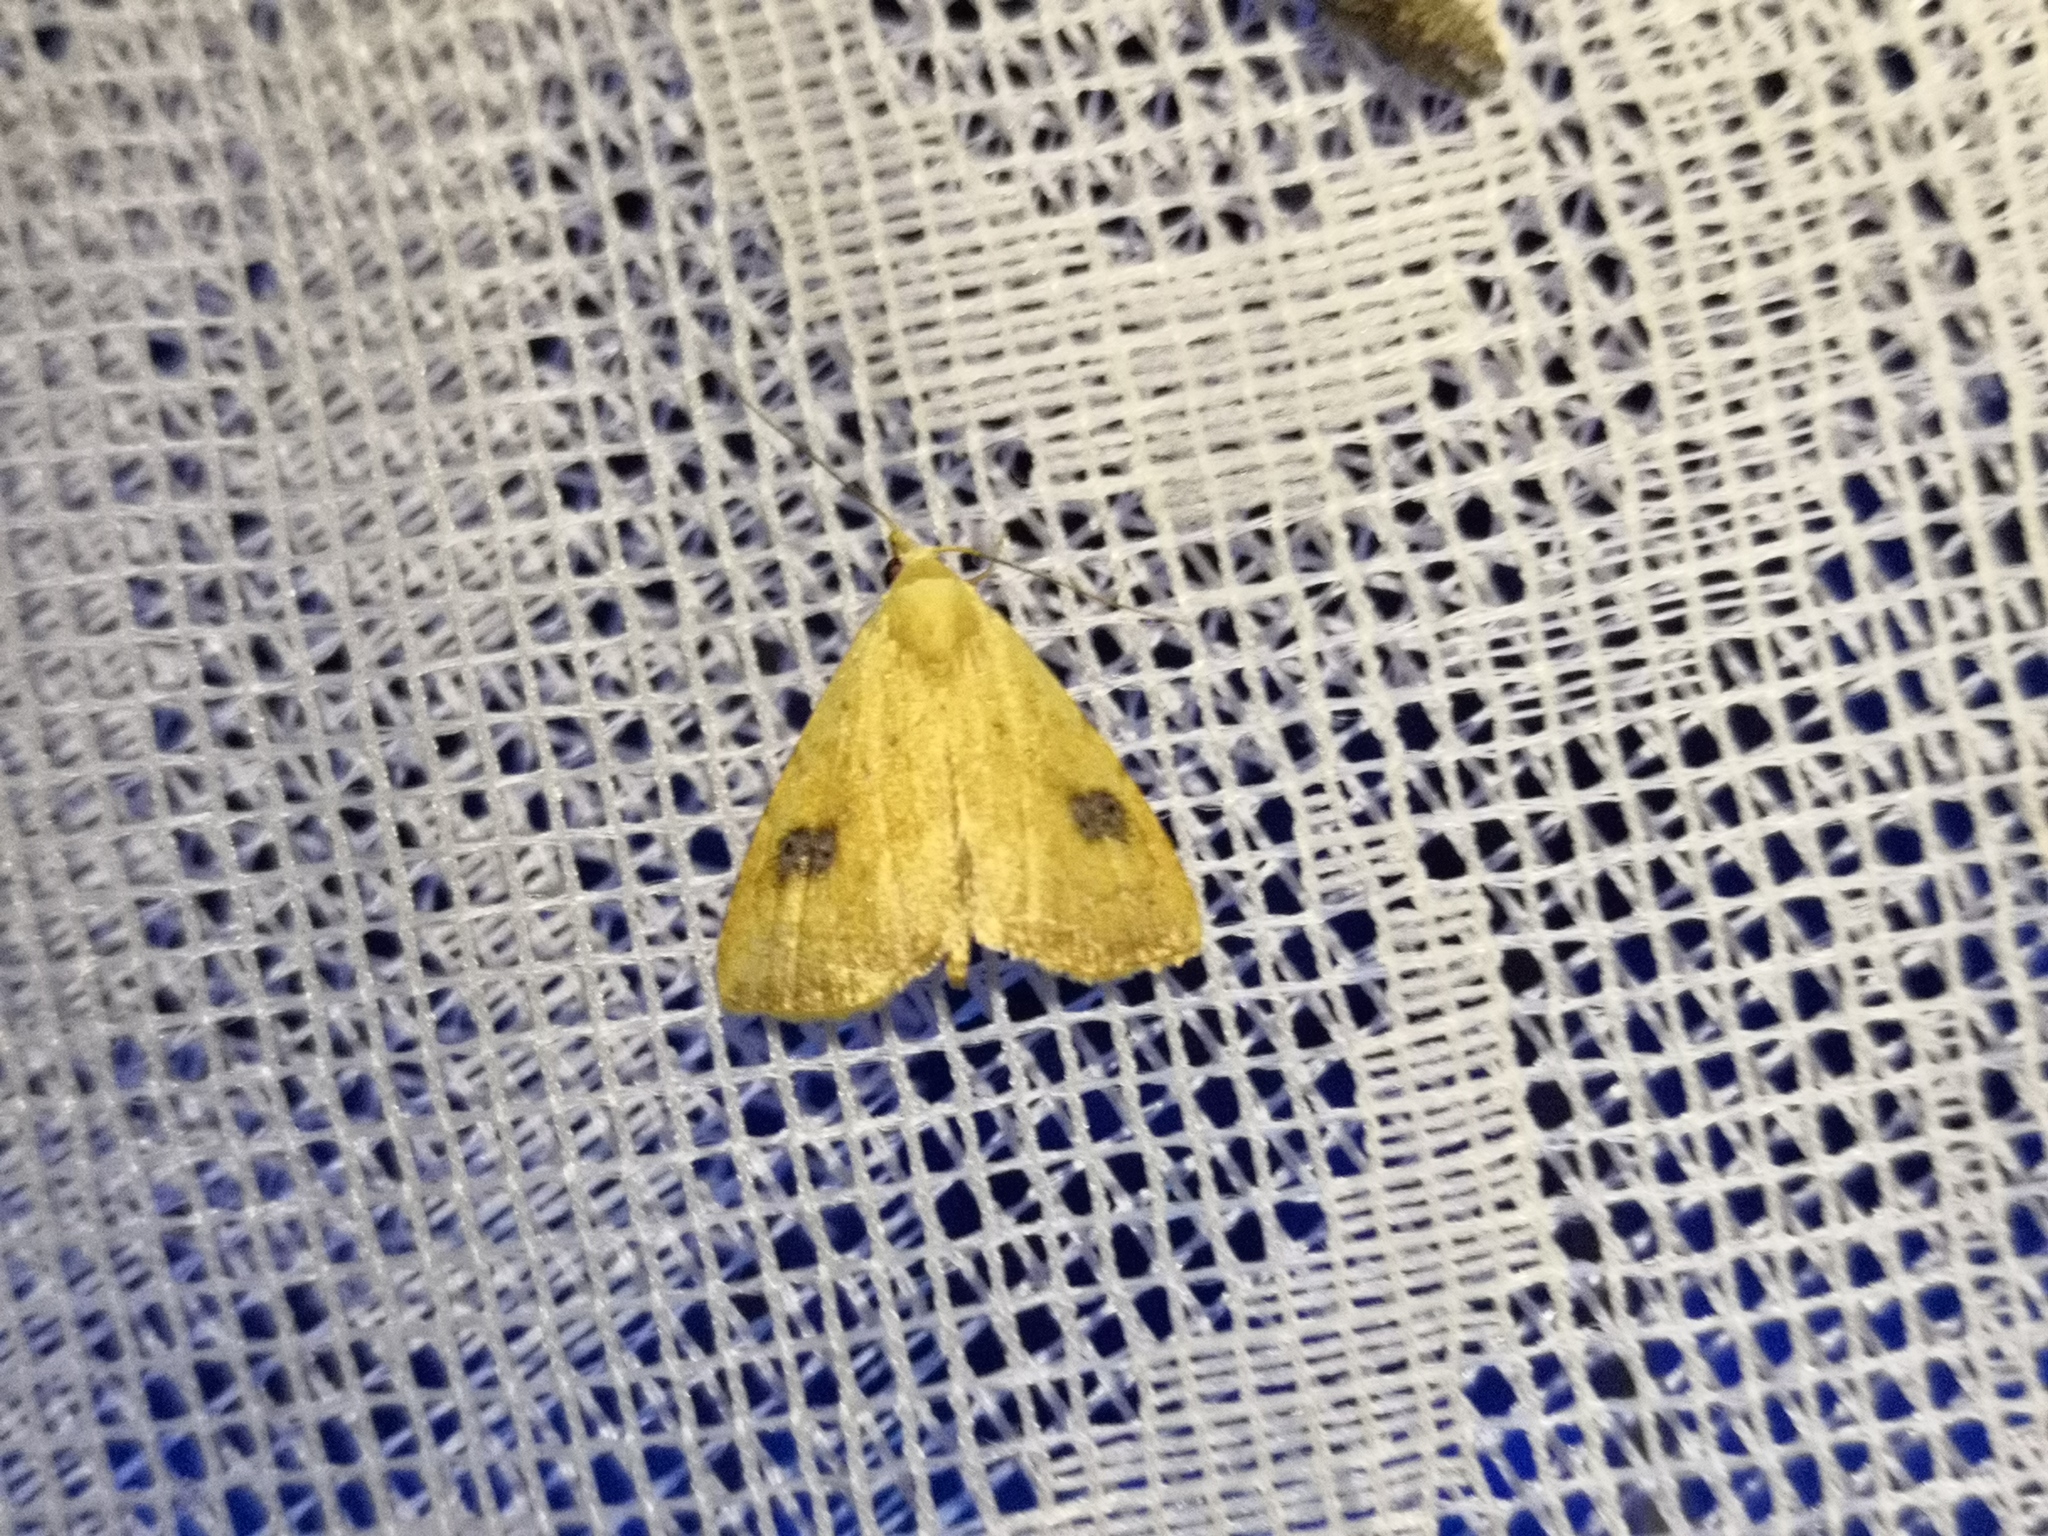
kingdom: Animalia
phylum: Arthropoda
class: Insecta
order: Lepidoptera
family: Erebidae
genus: Rivula
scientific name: Rivula sericealis
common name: Straw dot
